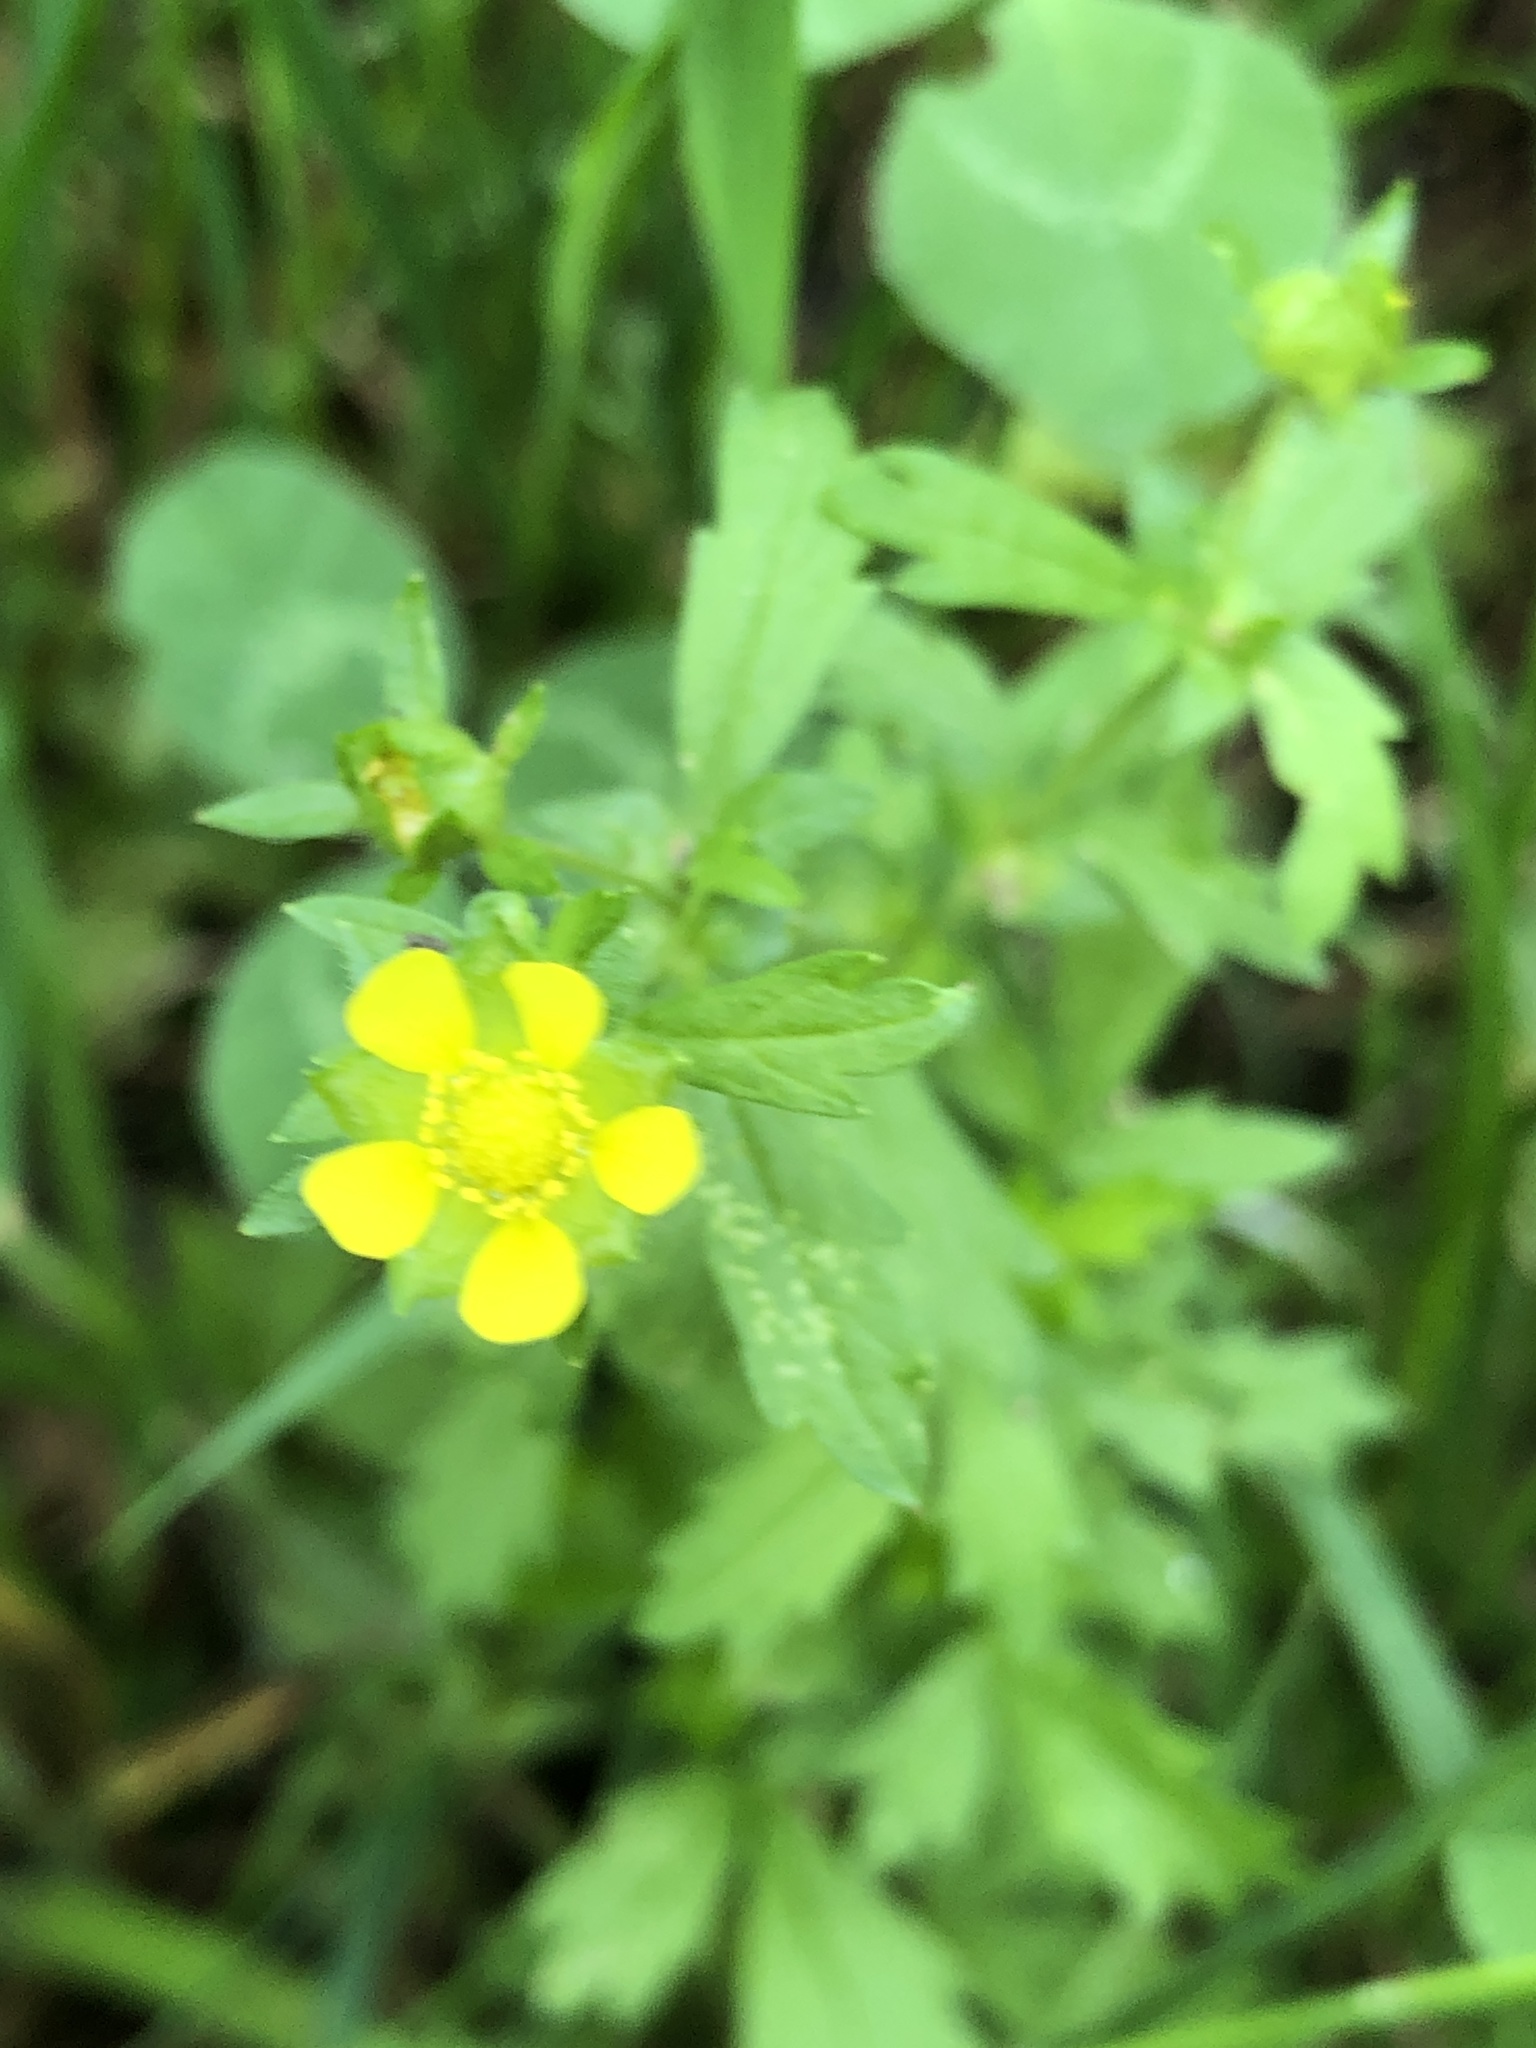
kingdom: Plantae
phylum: Tracheophyta
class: Magnoliopsida
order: Rosales
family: Rosaceae
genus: Potentilla
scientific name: Potentilla norvegica
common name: Ternate-leaved cinquefoil
